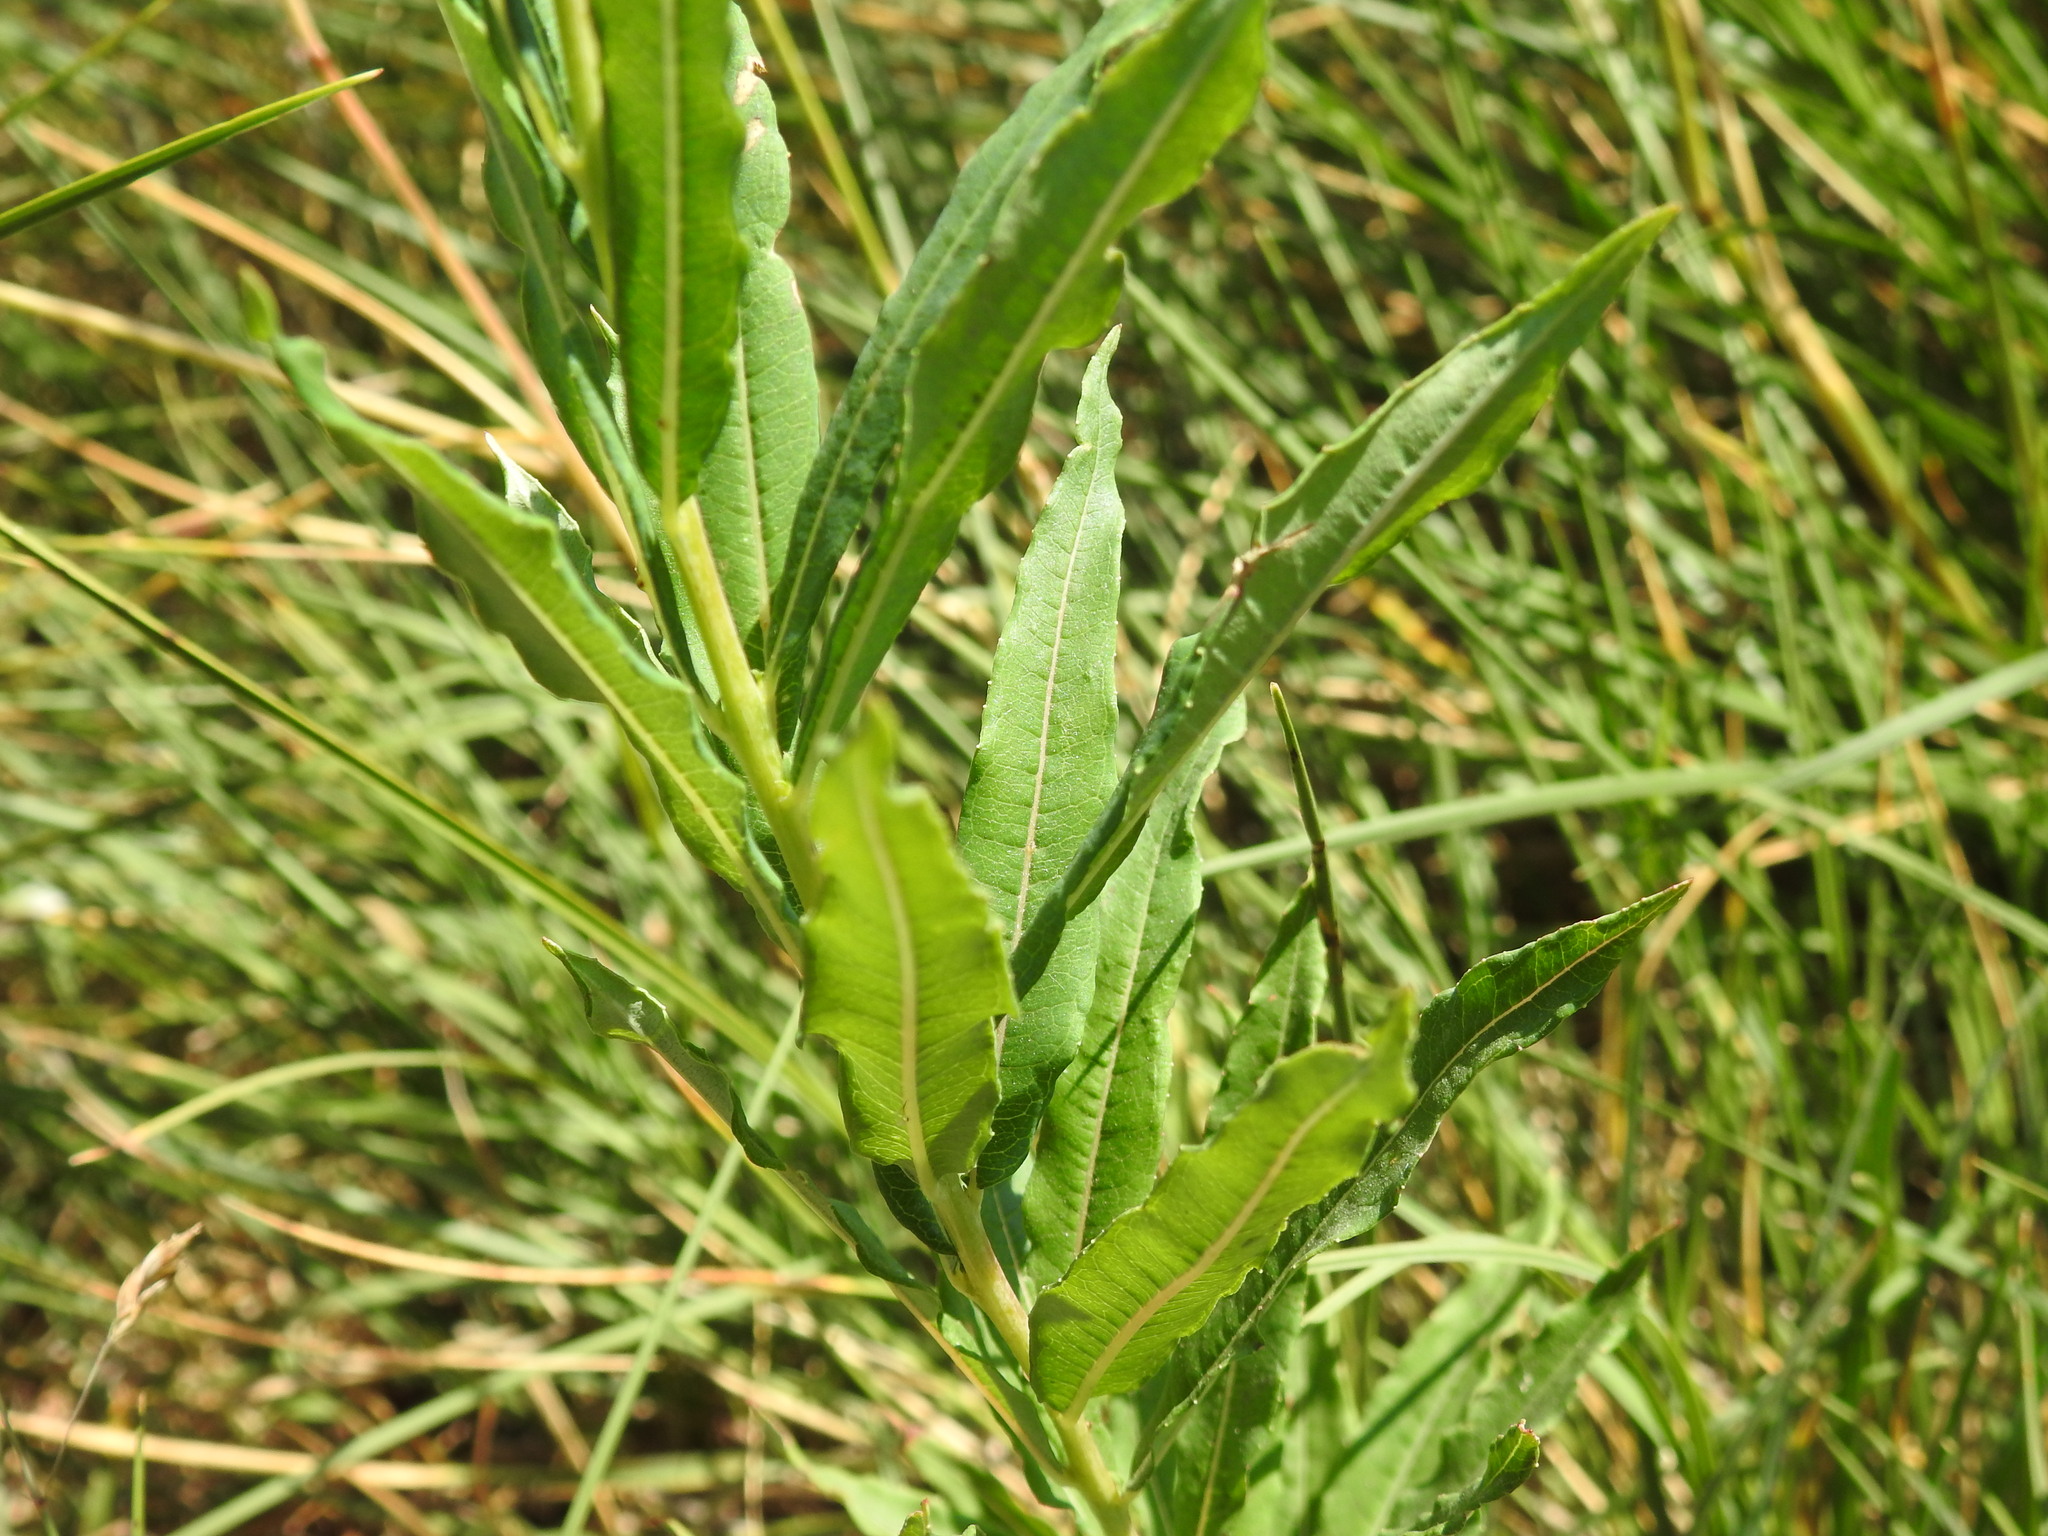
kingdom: Plantae
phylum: Tracheophyta
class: Magnoliopsida
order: Myrtales
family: Onagraceae
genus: Chamaenerion
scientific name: Chamaenerion angustifolium
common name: Fireweed
